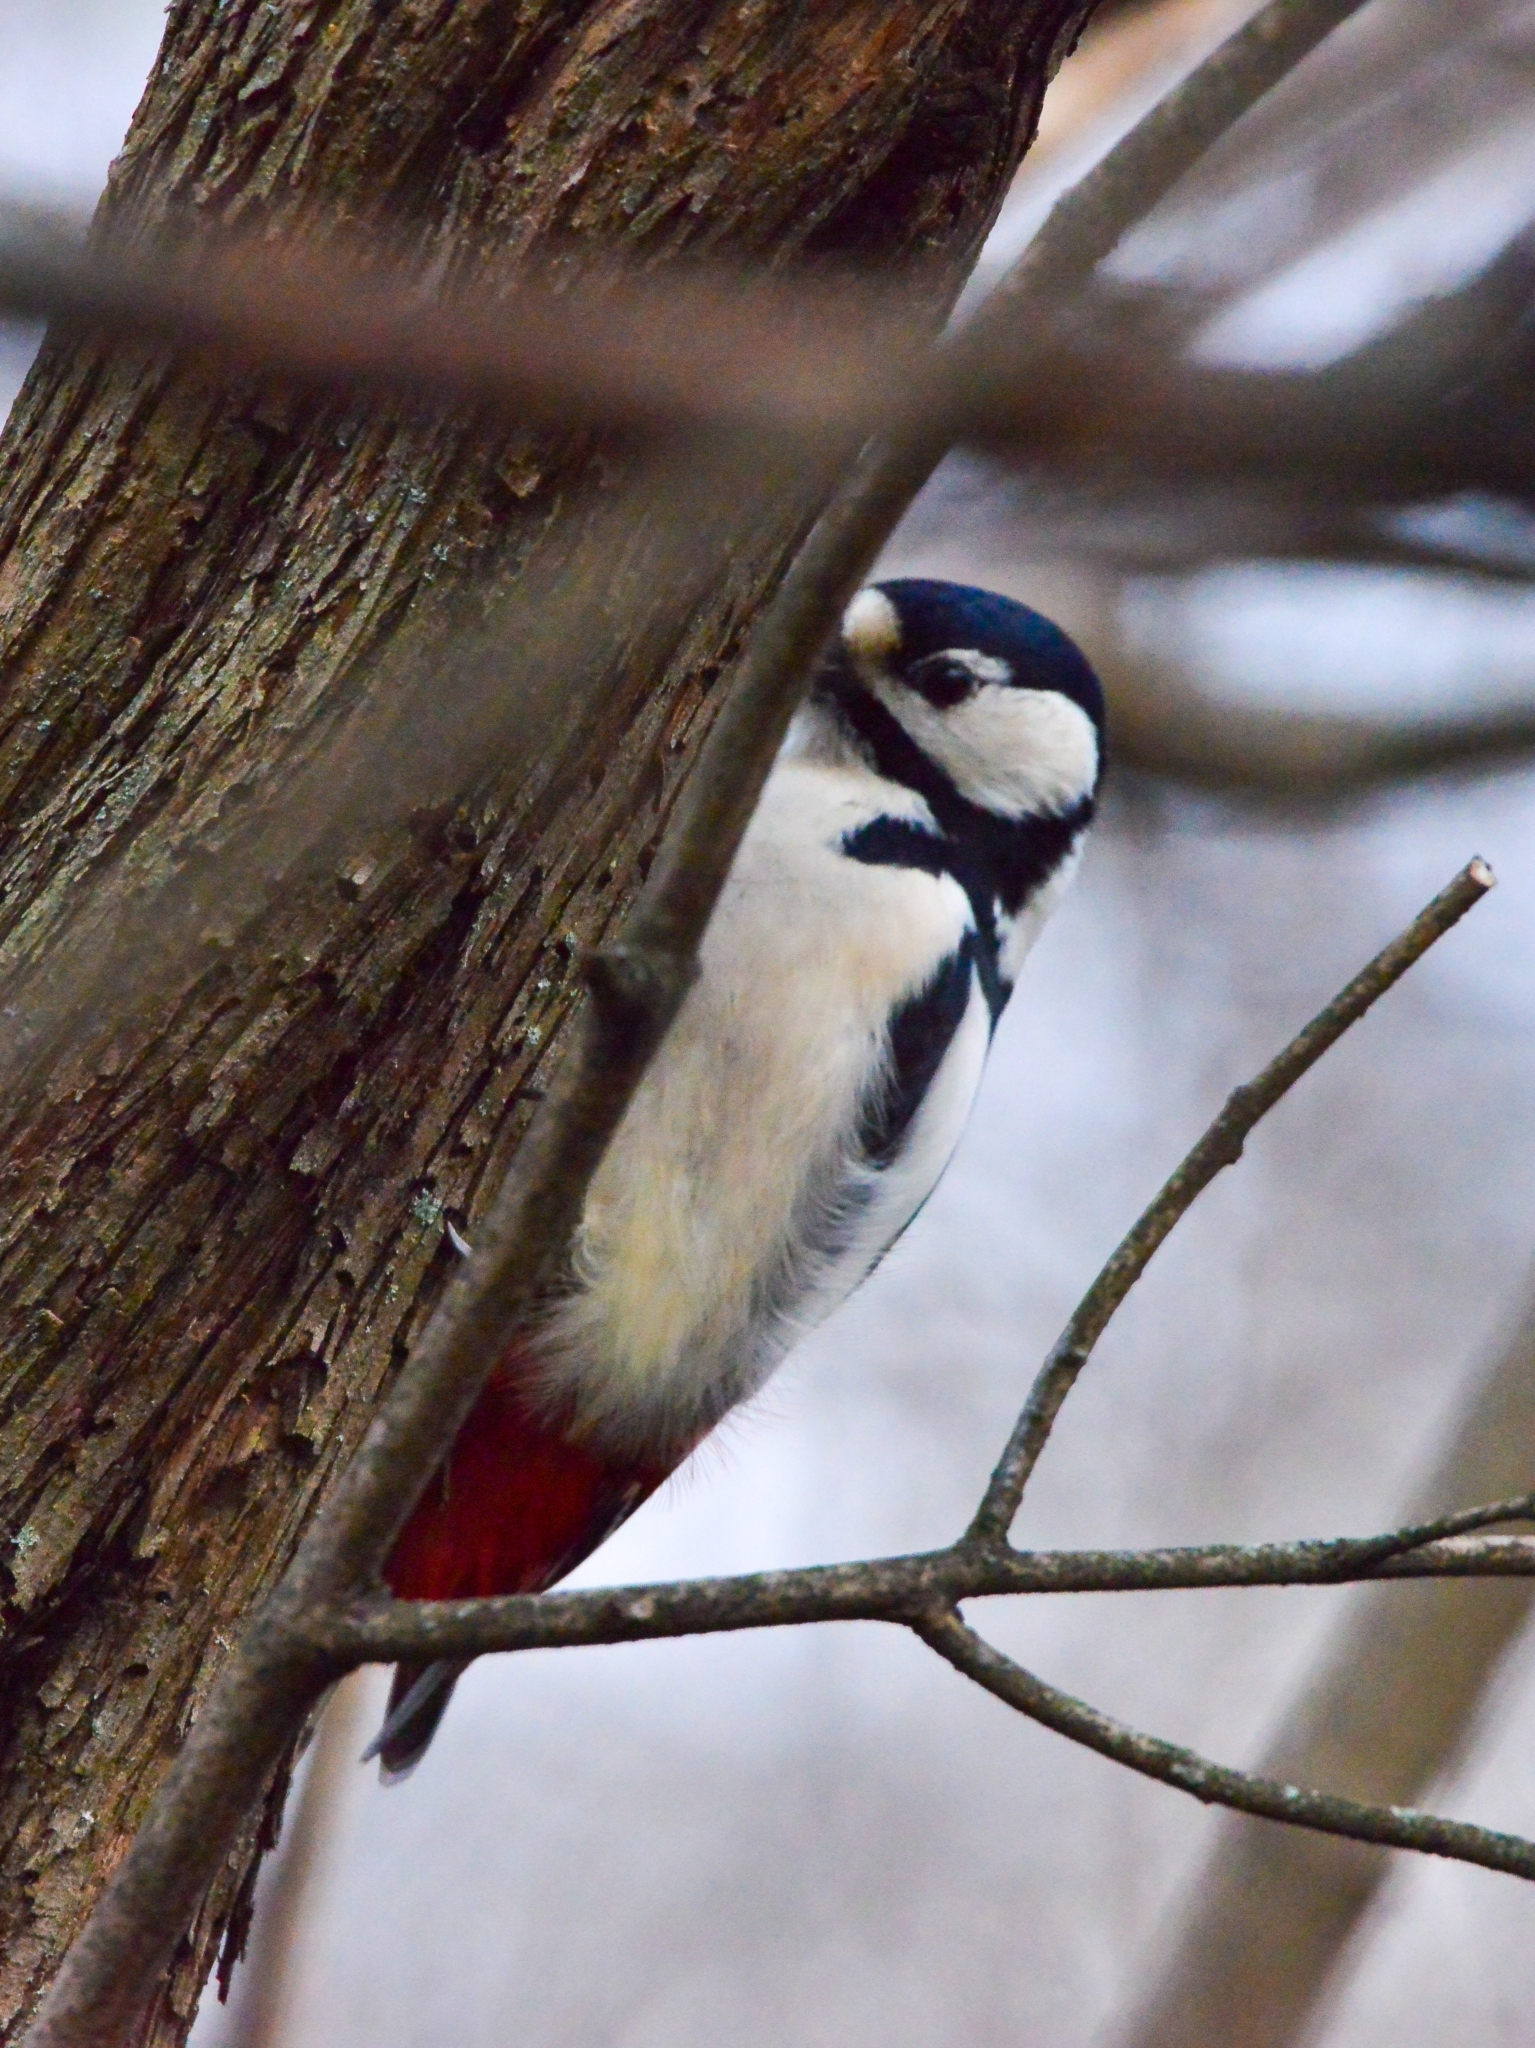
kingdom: Animalia
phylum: Chordata
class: Aves
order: Piciformes
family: Picidae
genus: Dendrocopos
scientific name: Dendrocopos major
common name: Great spotted woodpecker
